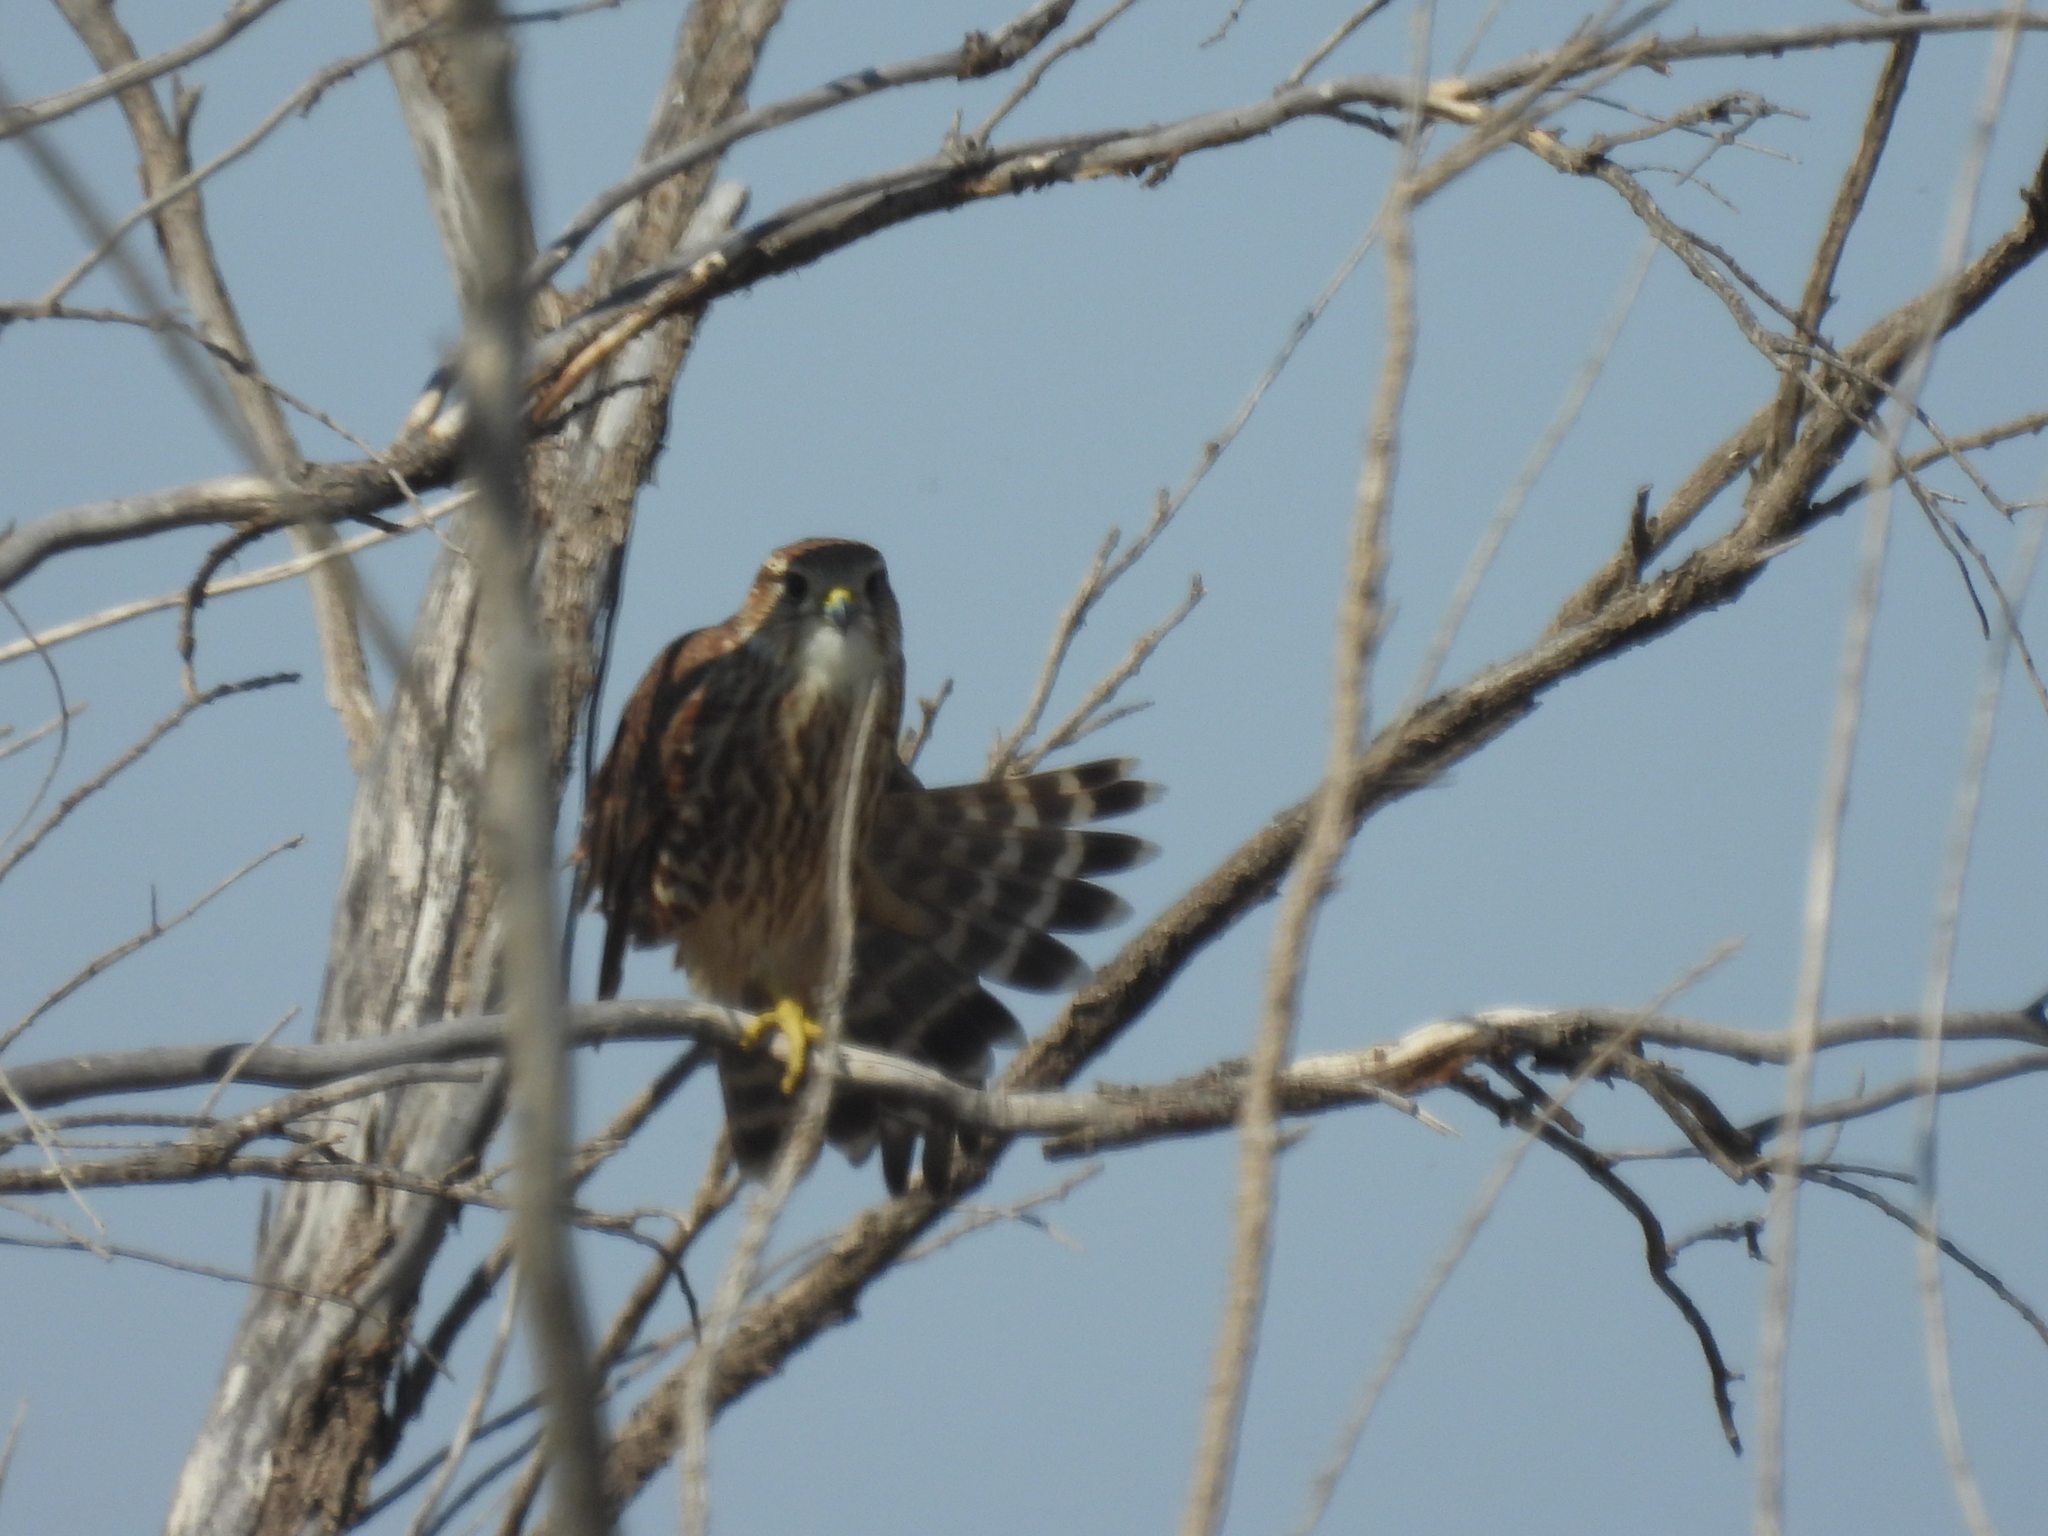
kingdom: Animalia
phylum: Chordata
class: Aves
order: Falconiformes
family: Falconidae
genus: Falco
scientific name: Falco columbarius
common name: Merlin
